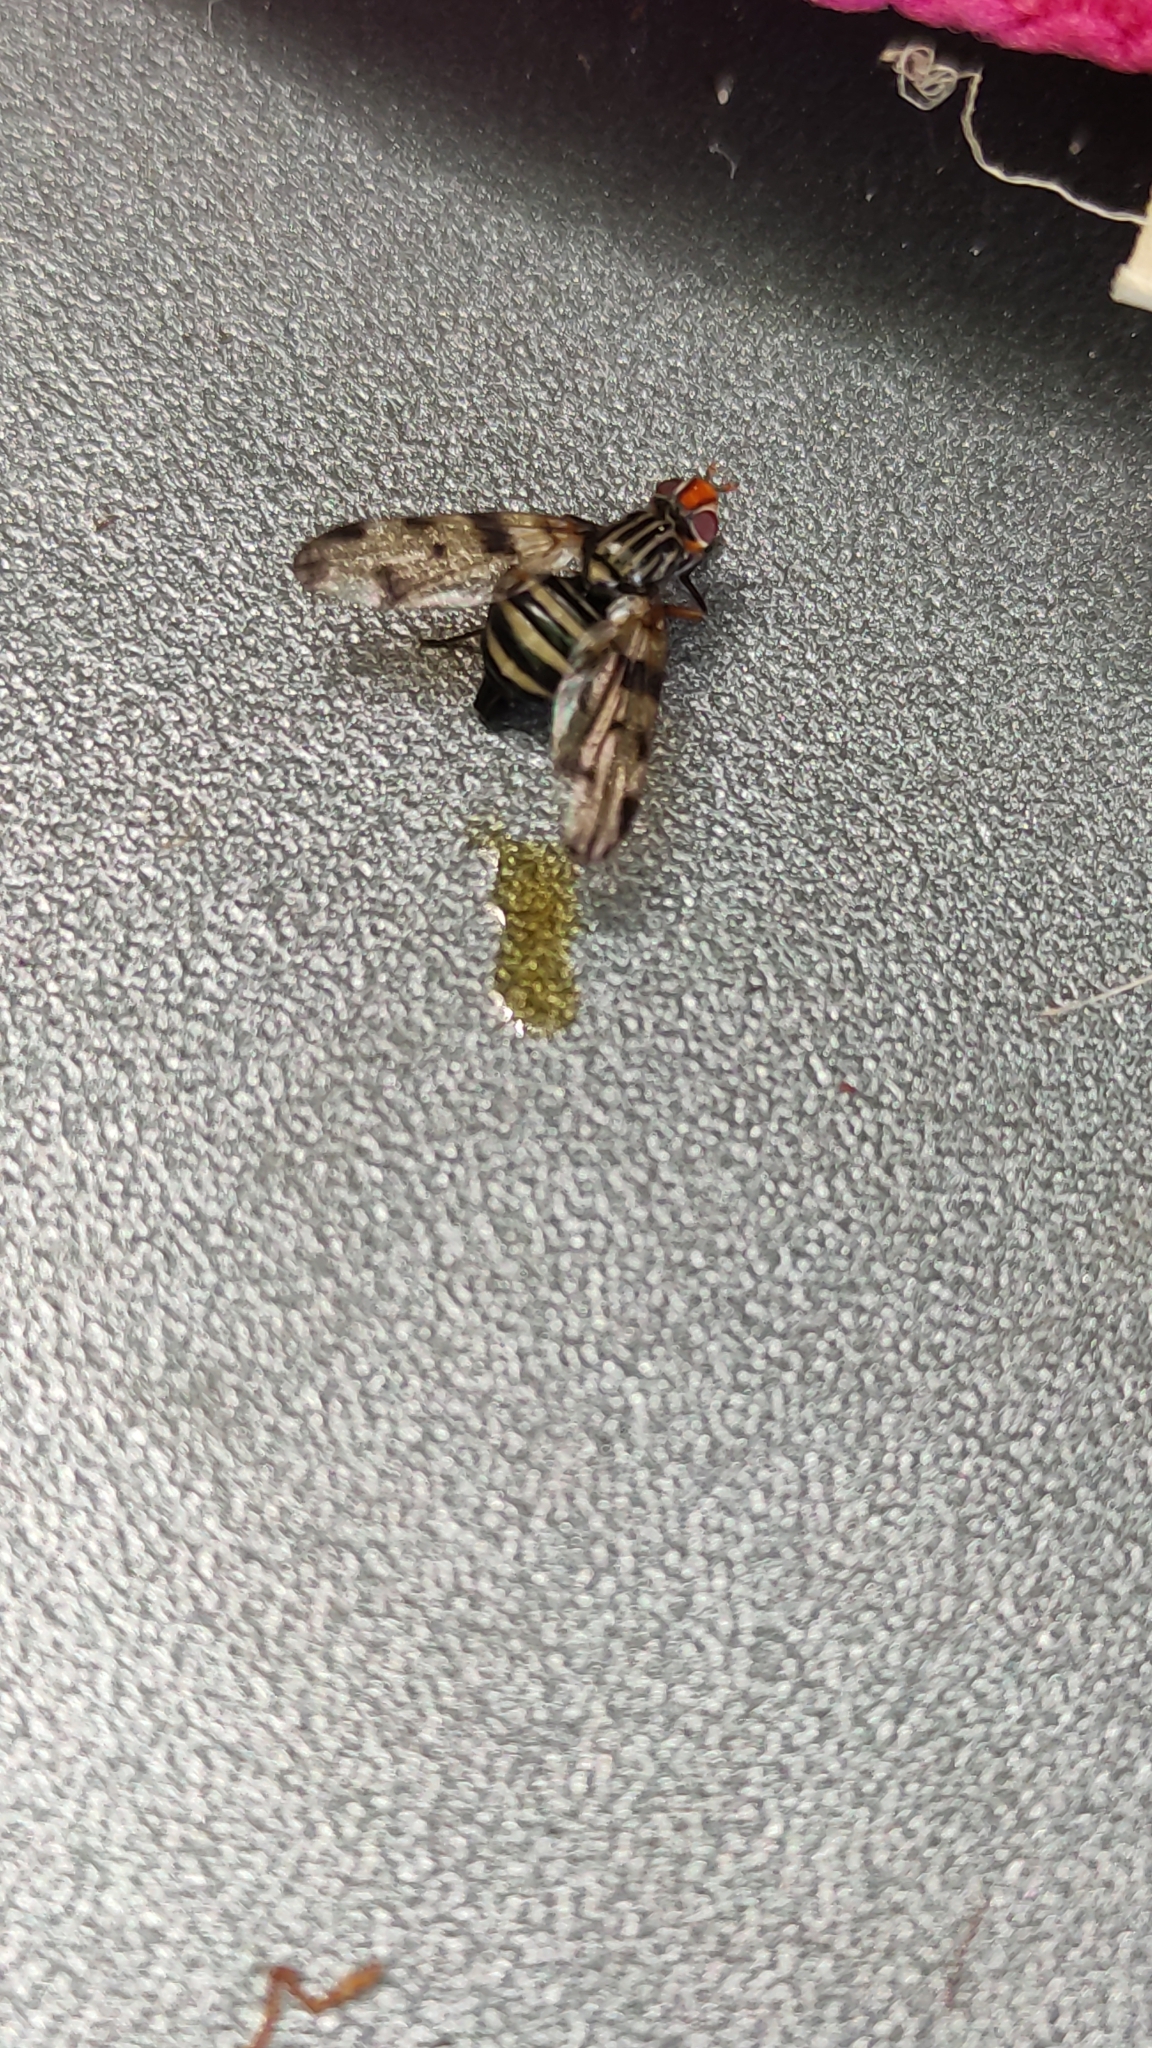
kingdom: Animalia
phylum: Arthropoda
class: Insecta
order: Diptera
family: Ulidiidae
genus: Otites
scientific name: Otites porcus
